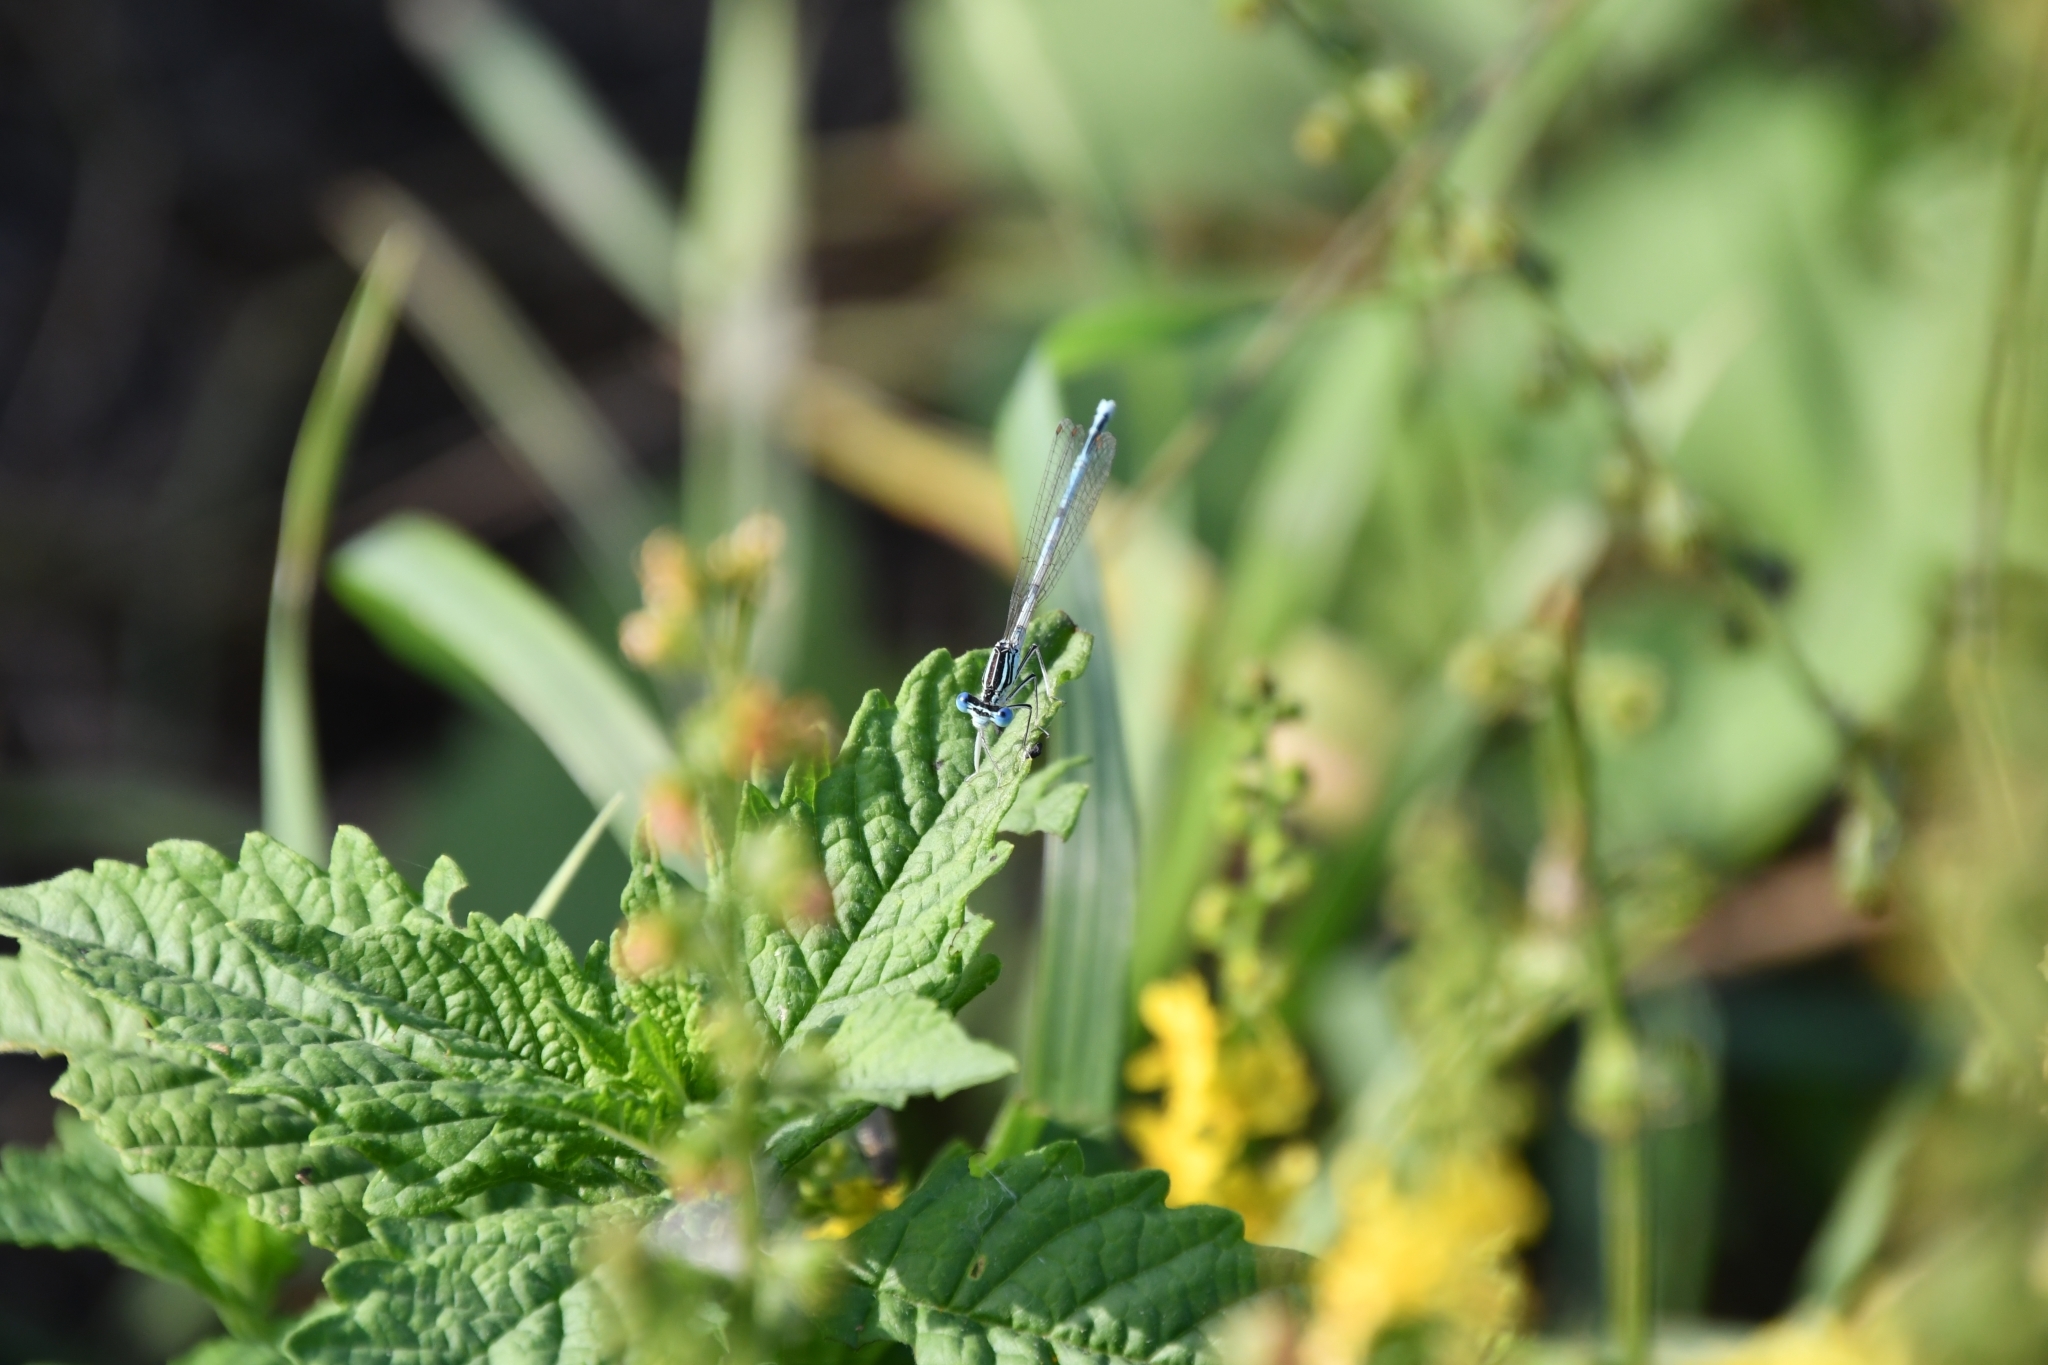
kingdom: Animalia
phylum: Arthropoda
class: Insecta
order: Odonata
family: Platycnemididae
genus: Platycnemis
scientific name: Platycnemis pennipes
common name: White-legged damselfly
